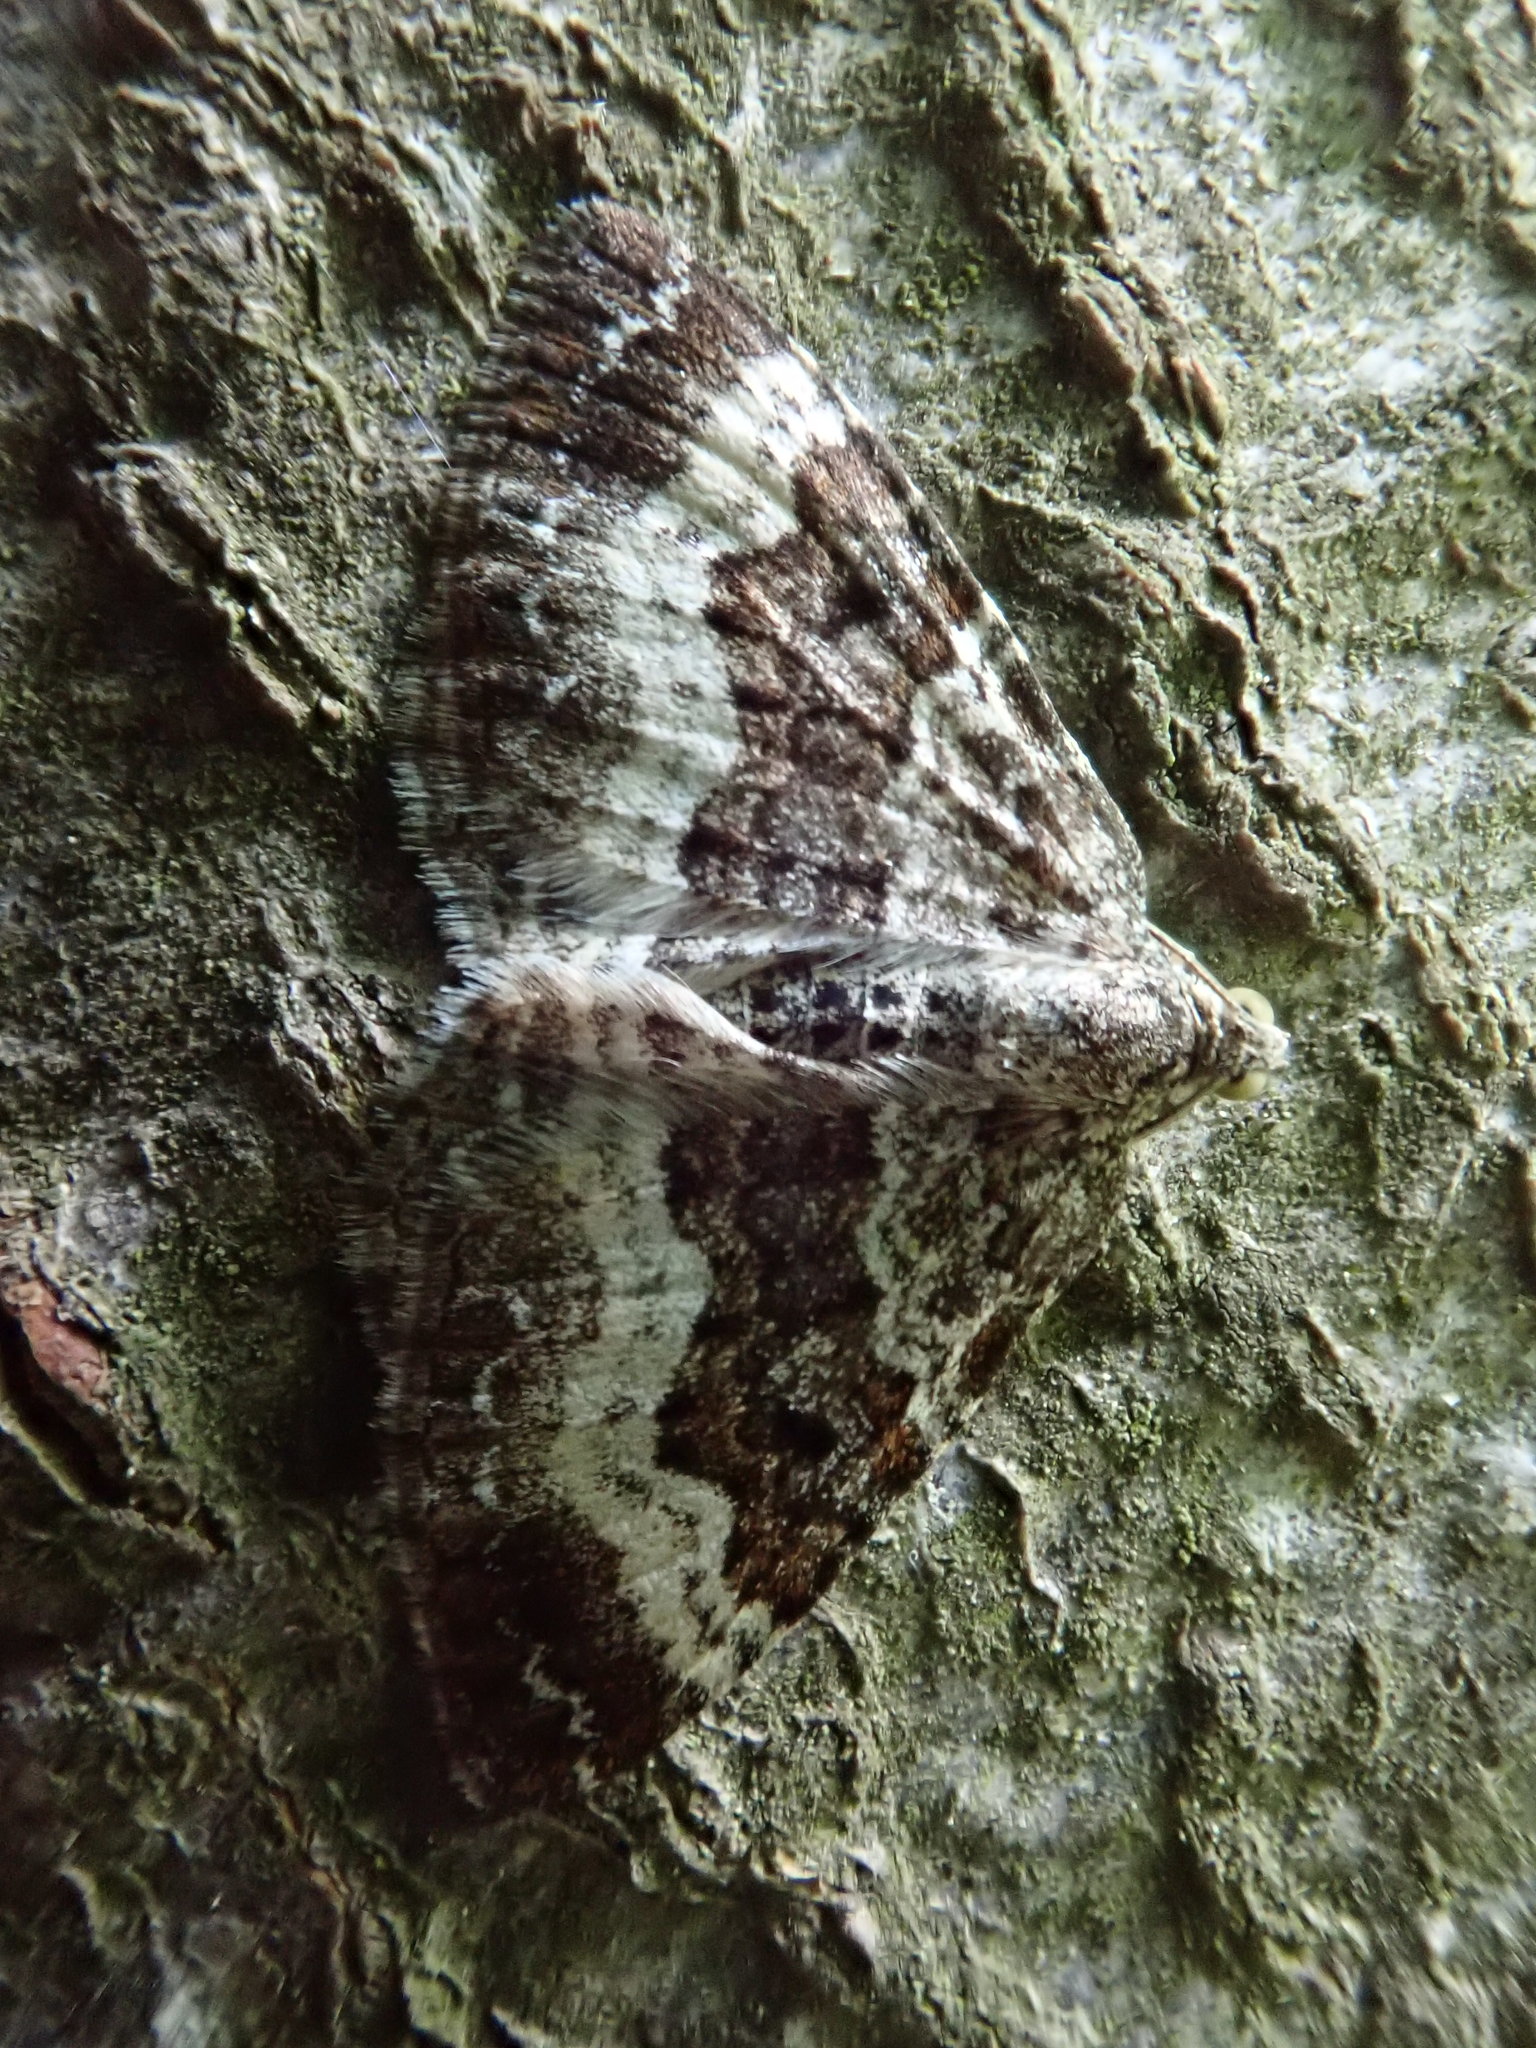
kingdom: Animalia
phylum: Arthropoda
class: Insecta
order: Lepidoptera
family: Geometridae
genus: Epirrhoe
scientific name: Epirrhoe alternata
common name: Common carpet
